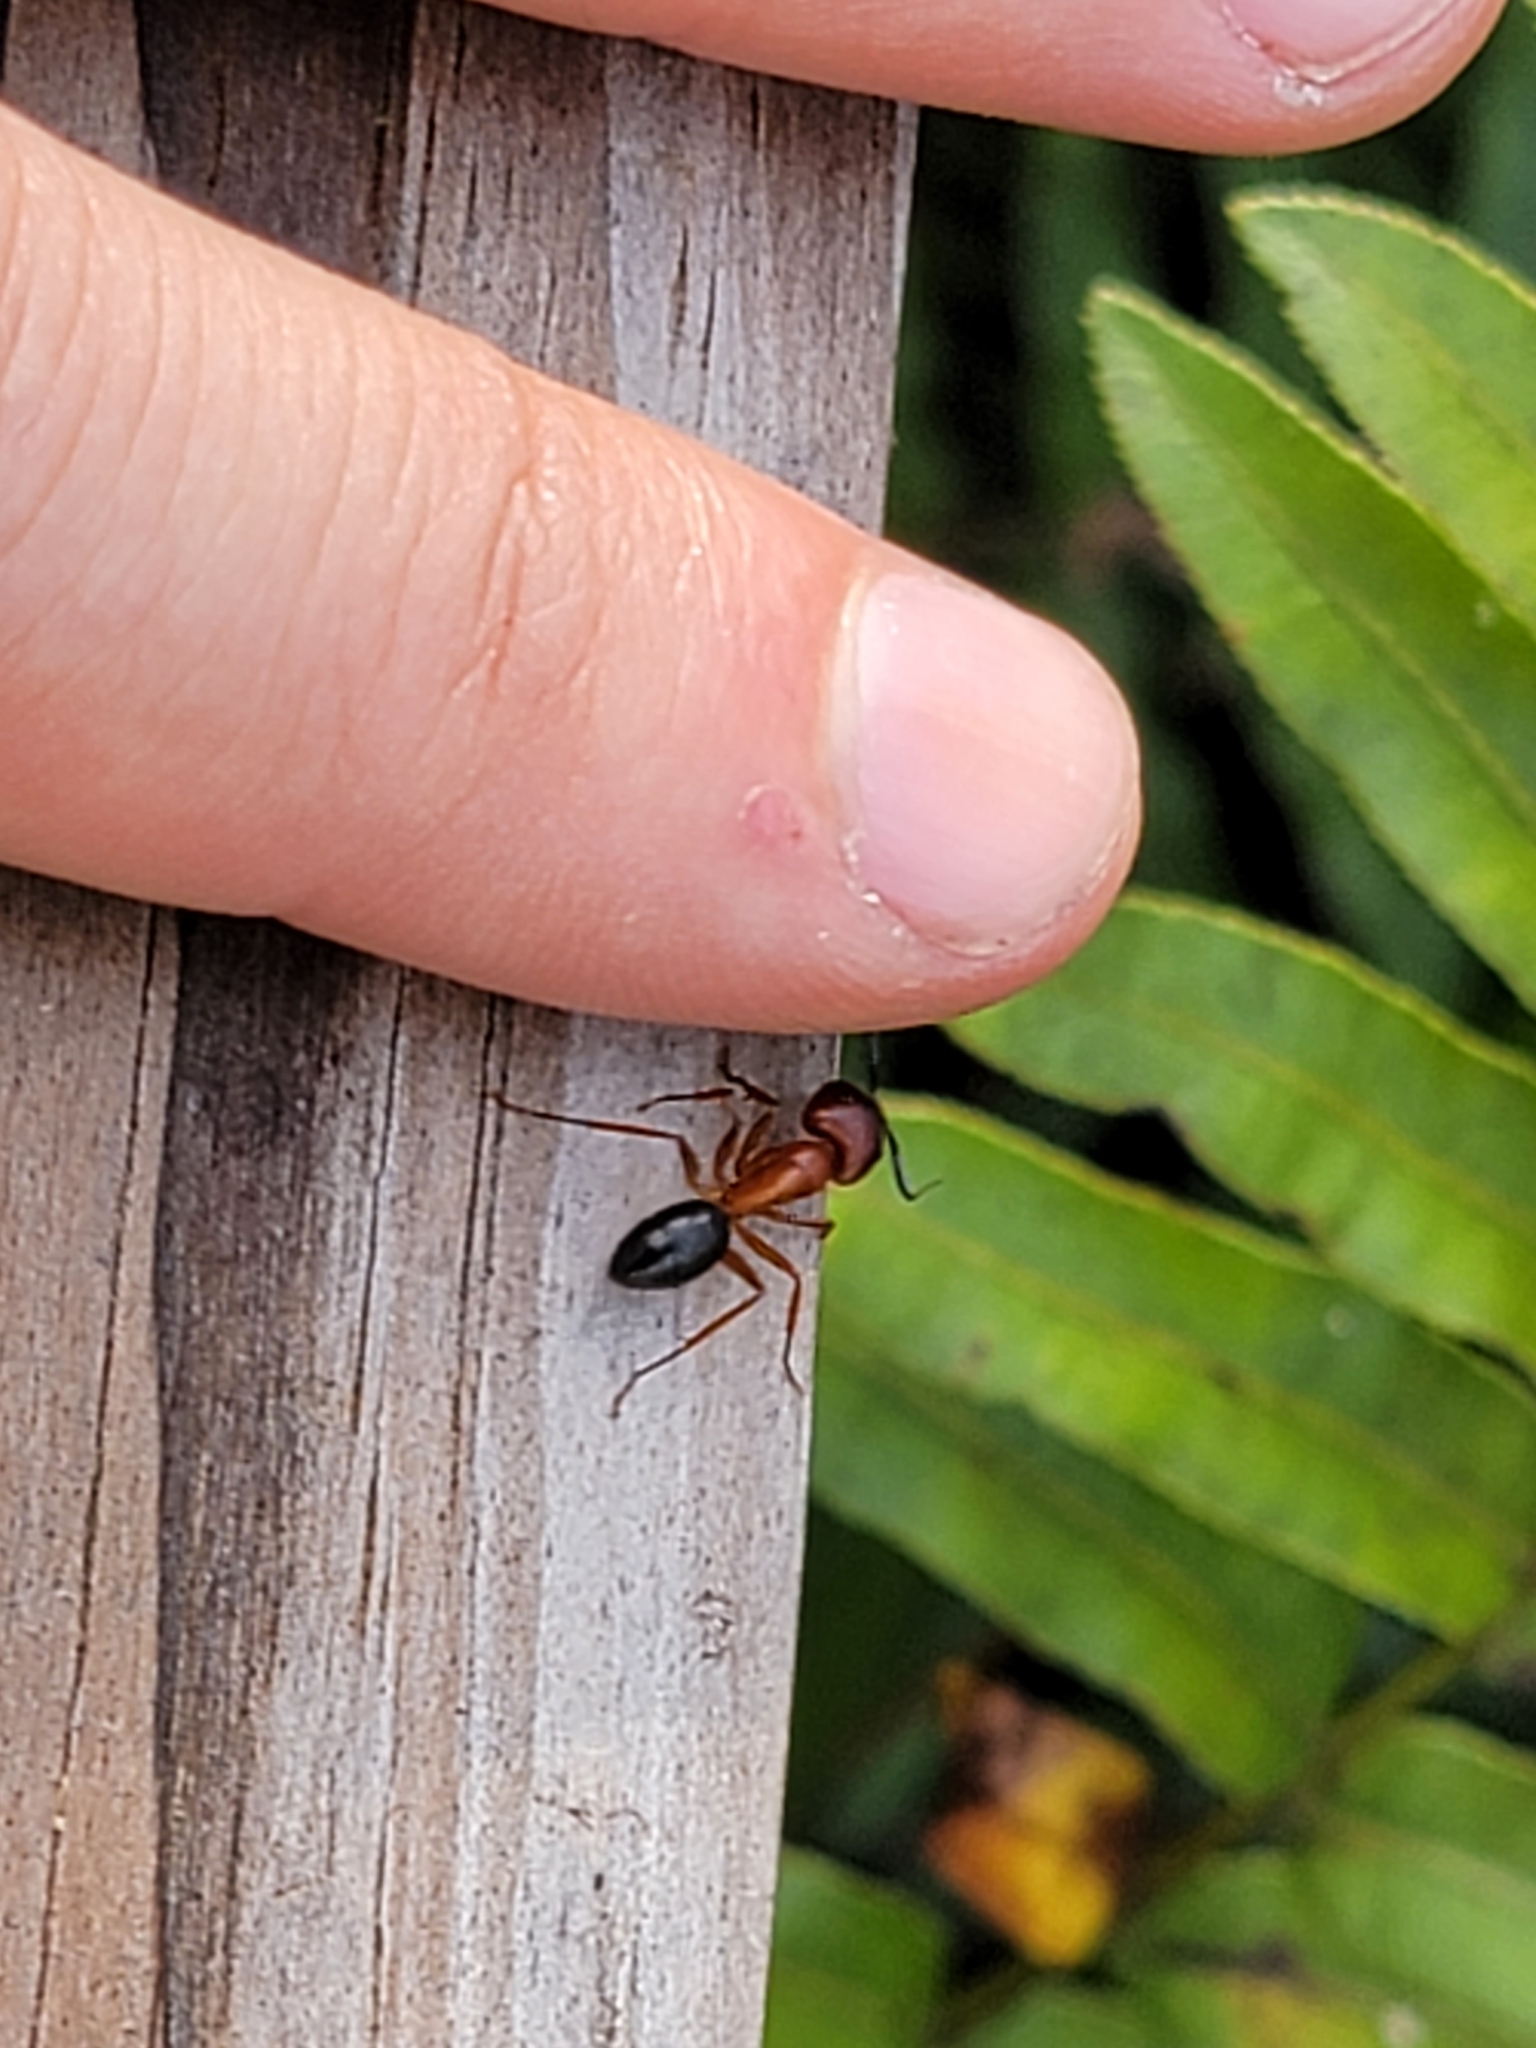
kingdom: Animalia
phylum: Arthropoda
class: Insecta
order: Hymenoptera
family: Formicidae
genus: Camponotus
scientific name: Camponotus floridanus
